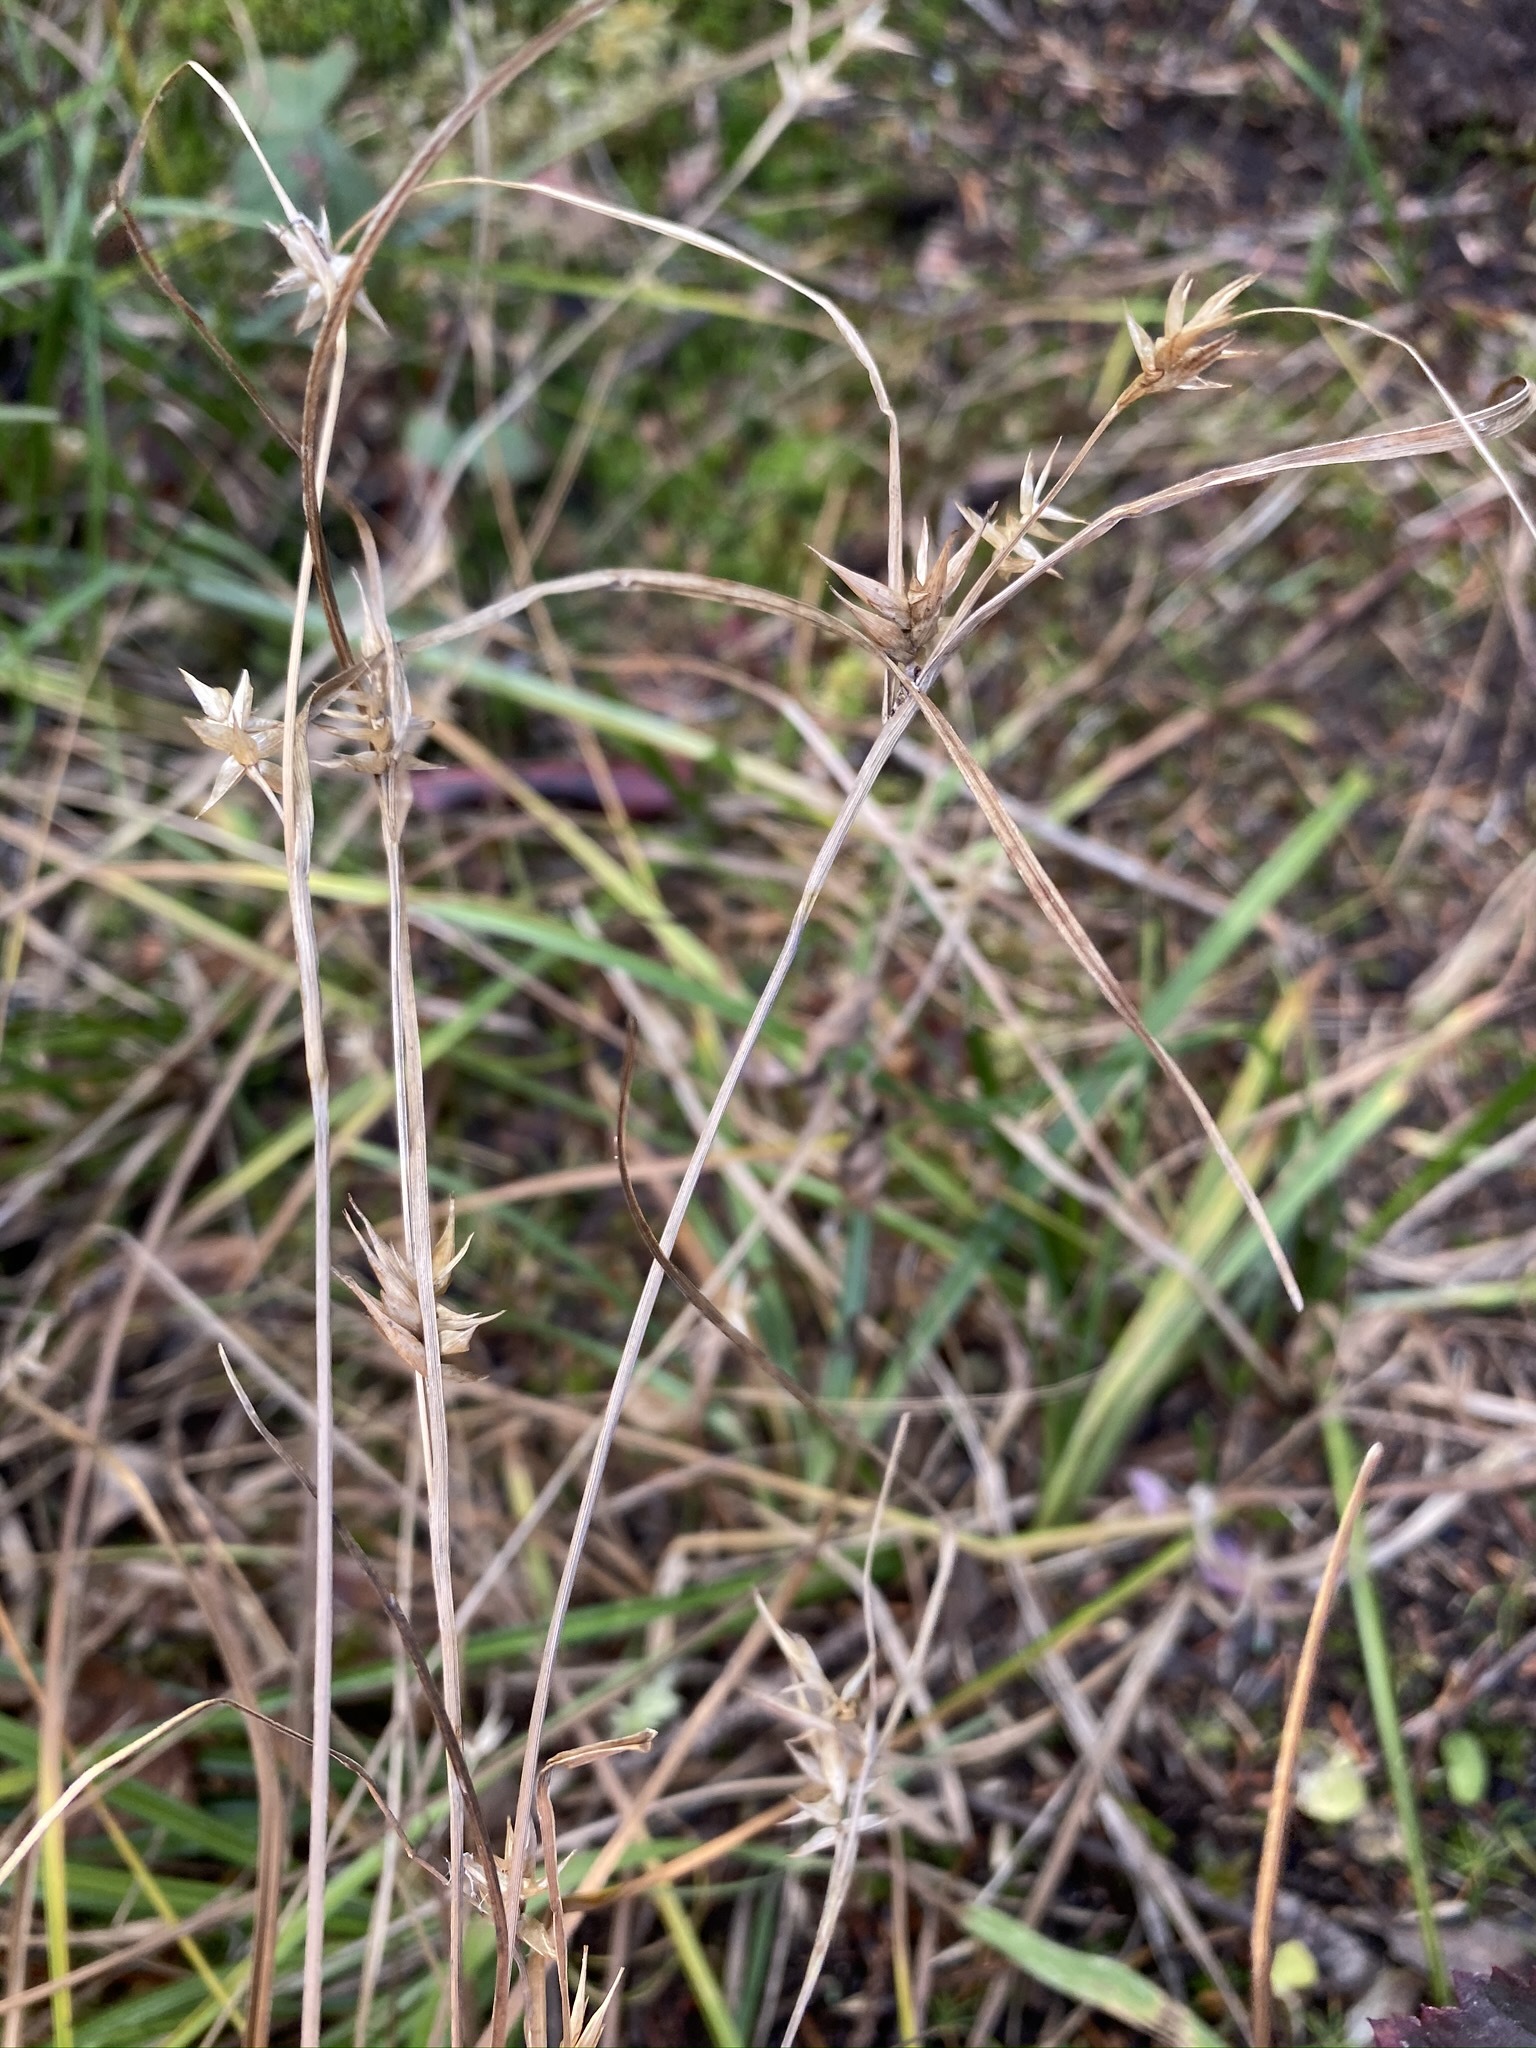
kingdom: Plantae
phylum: Tracheophyta
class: Liliopsida
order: Poales
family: Cyperaceae
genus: Carex
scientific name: Carex folliculata
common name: Northern long sedge
